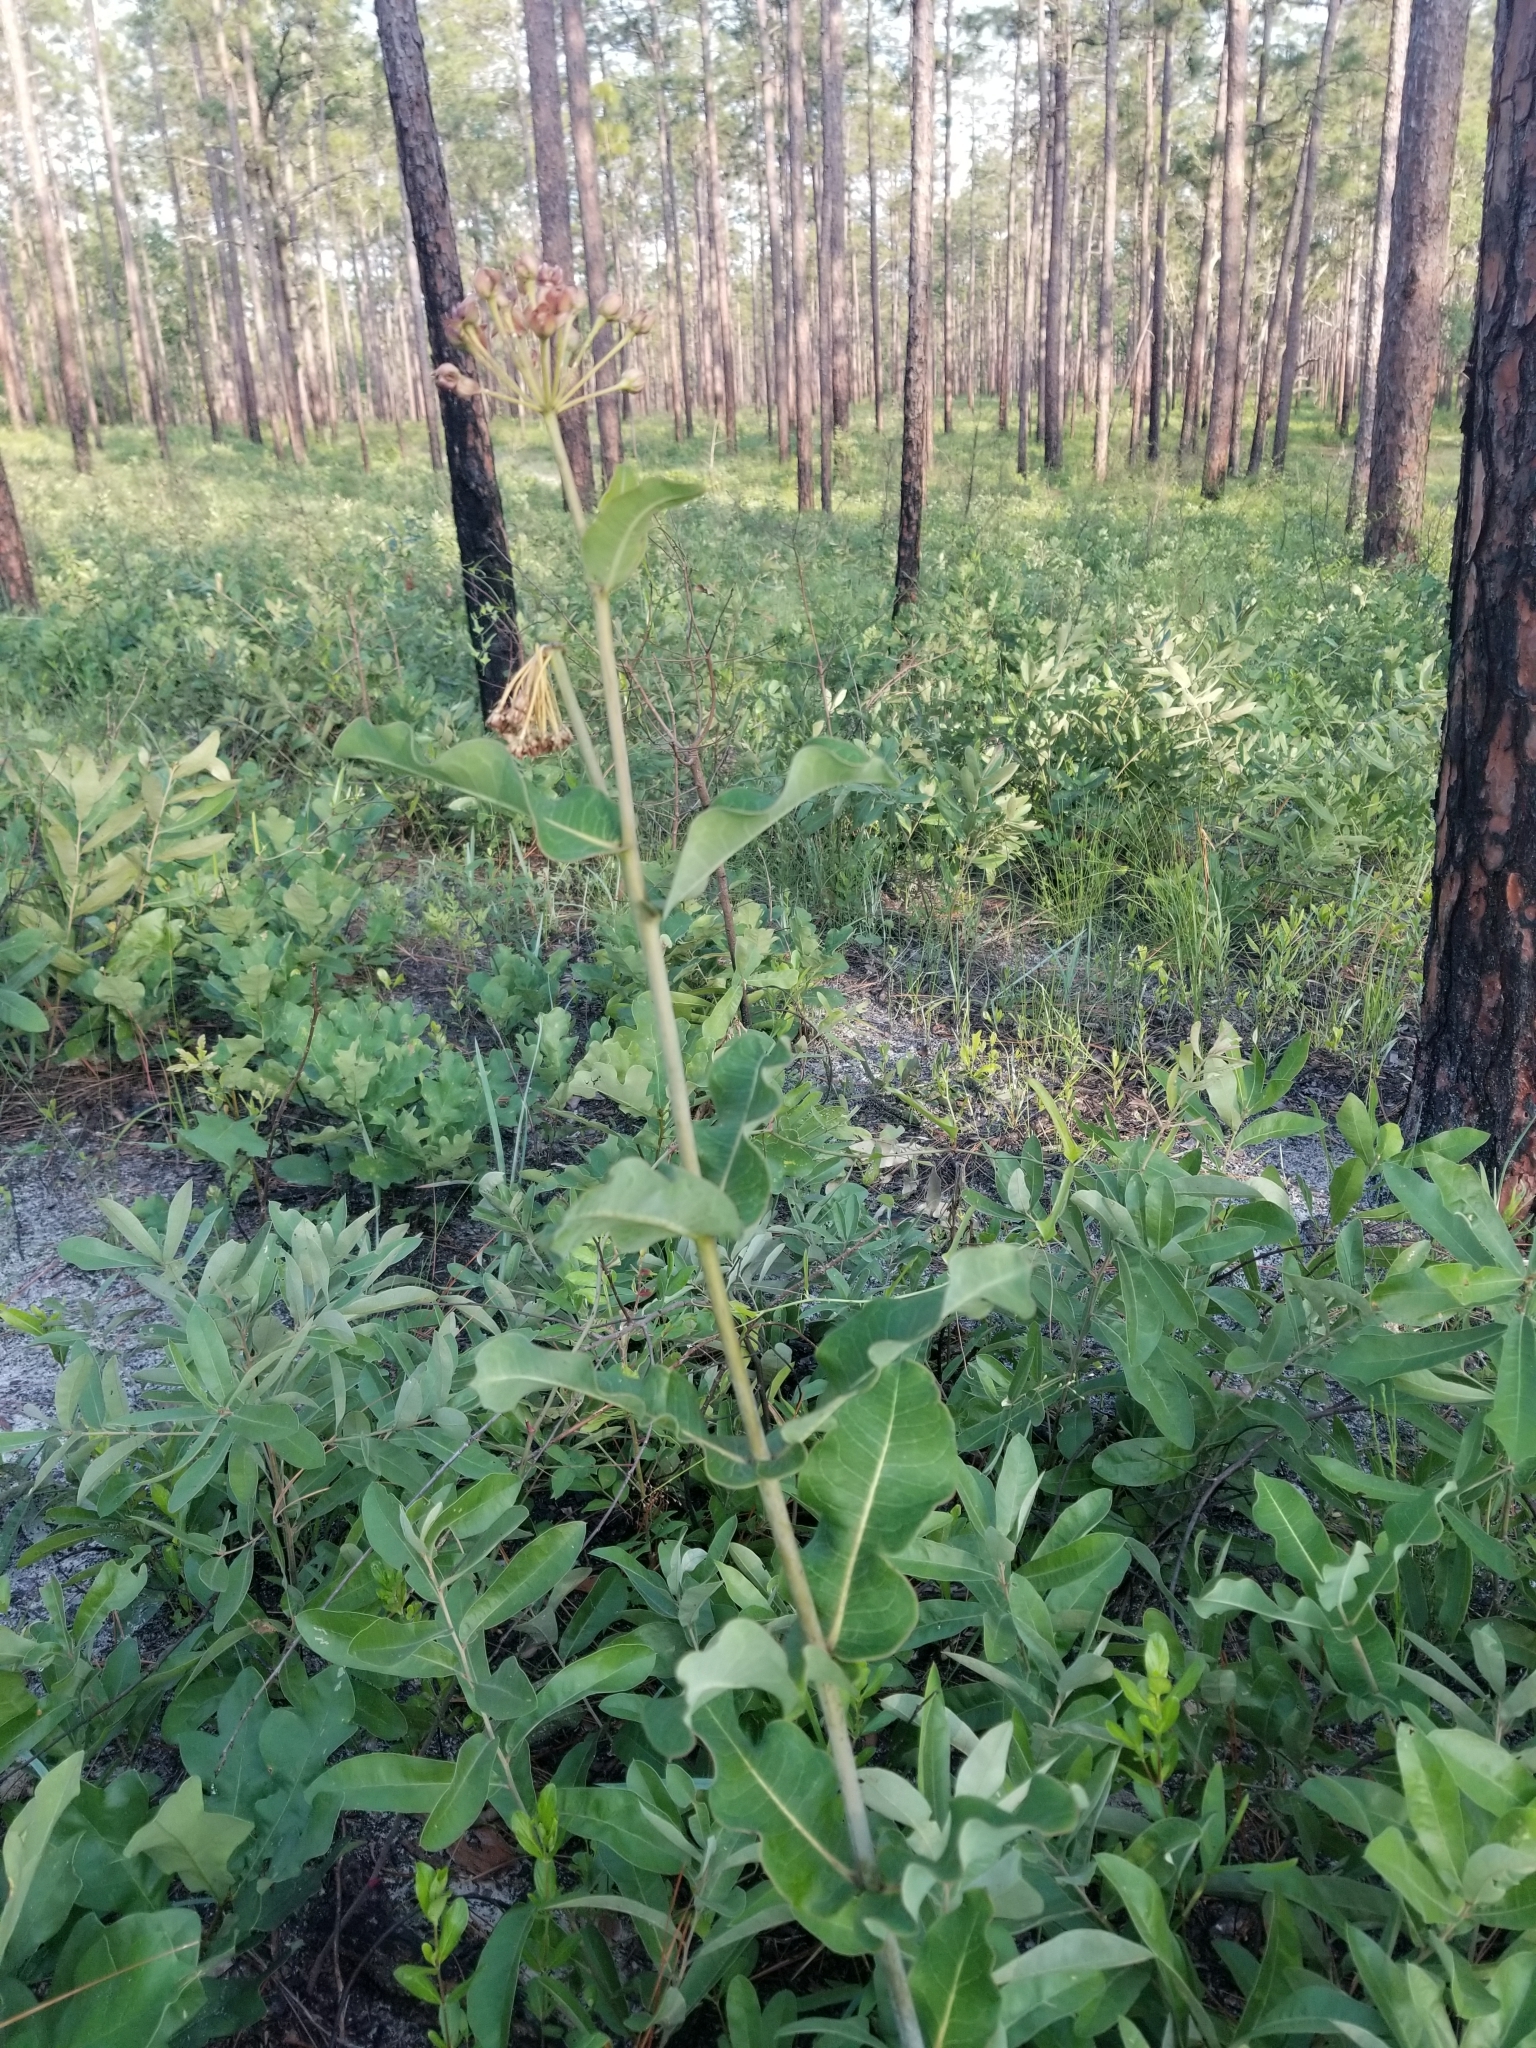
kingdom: Plantae
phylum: Tracheophyta
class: Magnoliopsida
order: Gentianales
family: Apocynaceae
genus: Asclepias
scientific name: Asclepias amplexicaulis
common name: Blunt-leaf milkweed
